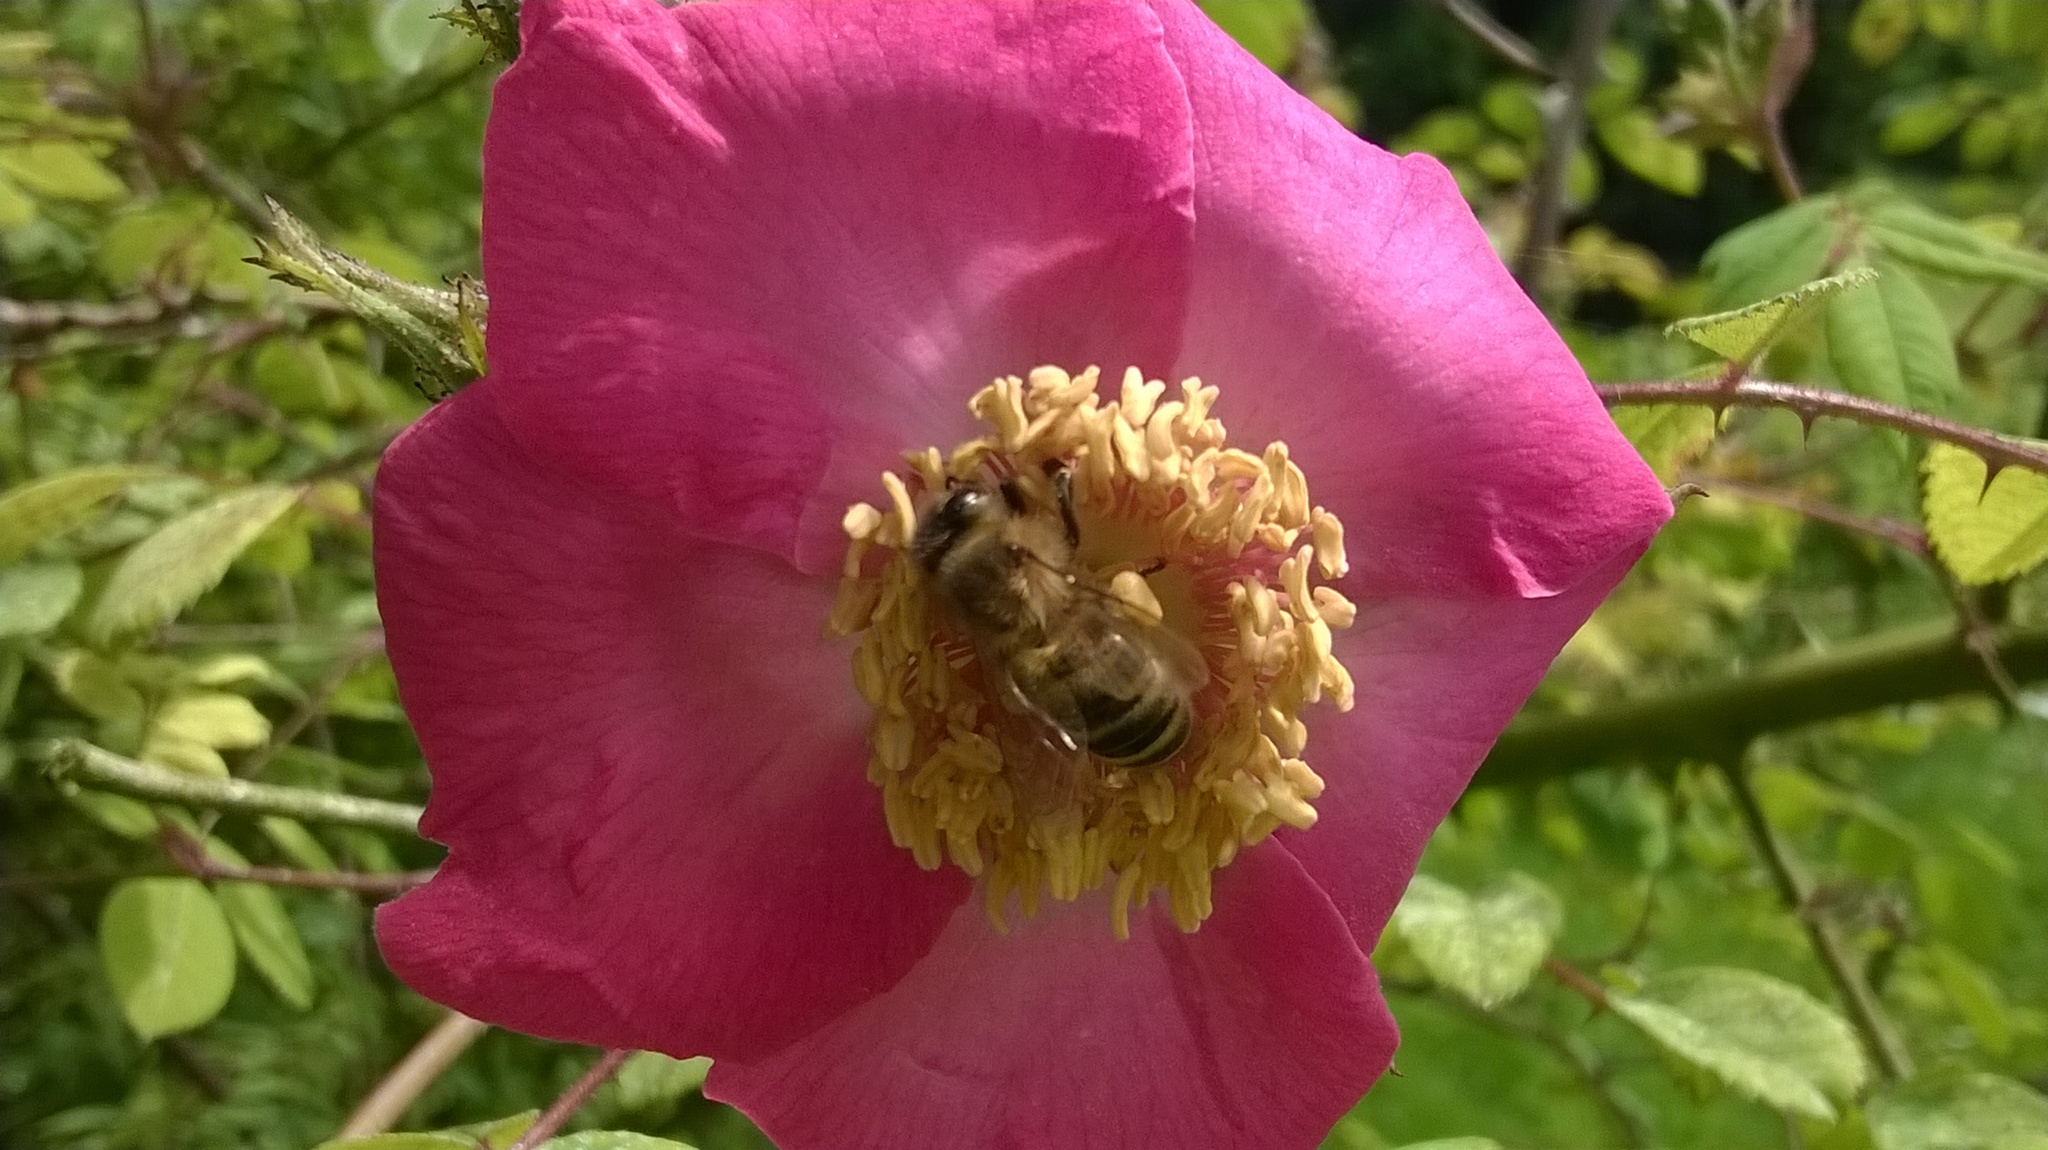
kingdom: Animalia
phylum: Arthropoda
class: Insecta
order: Hymenoptera
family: Apidae
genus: Apis
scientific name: Apis mellifera
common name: Honey bee
